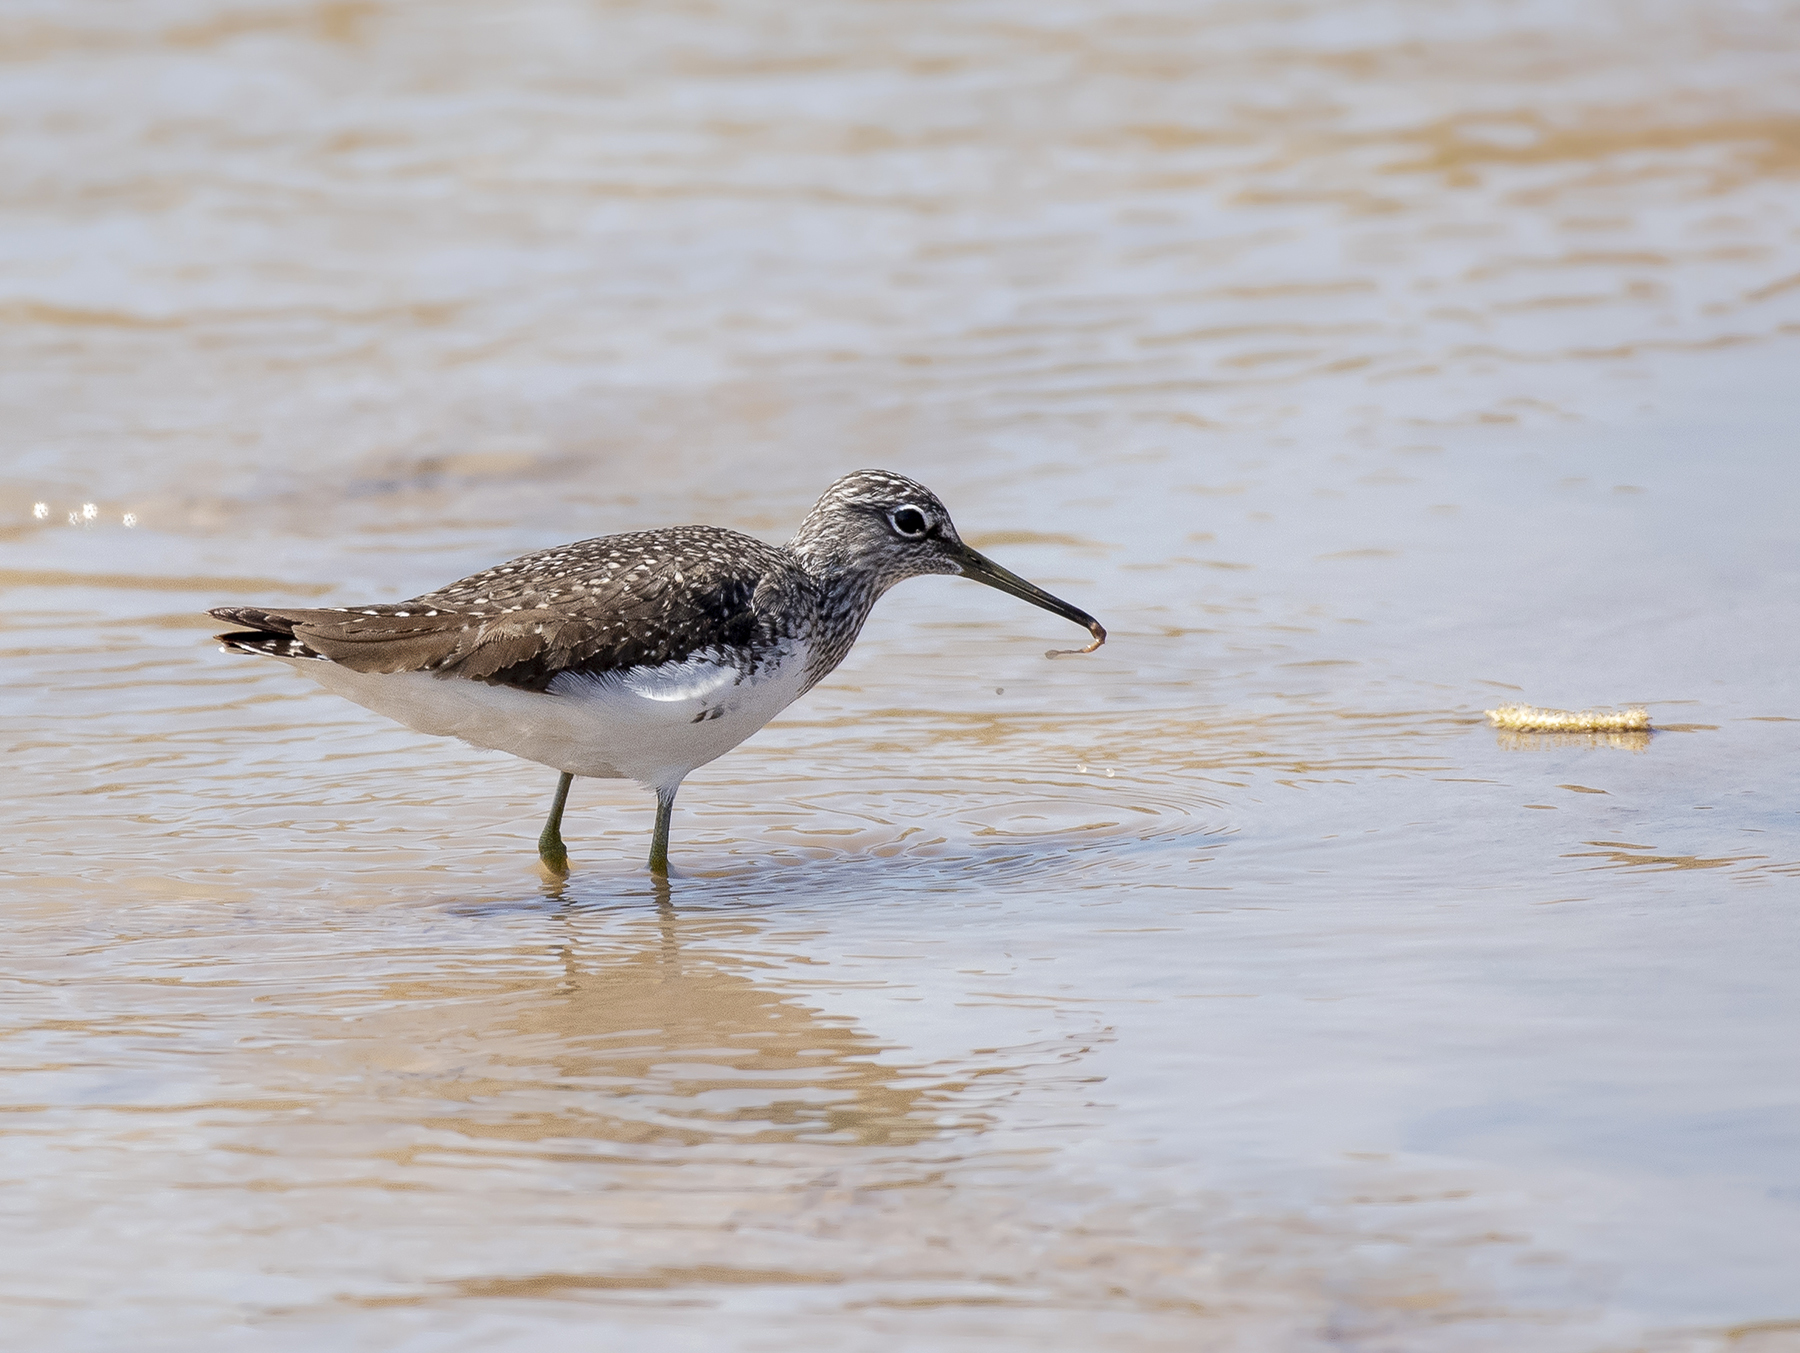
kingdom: Animalia
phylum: Chordata
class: Aves
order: Charadriiformes
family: Scolopacidae
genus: Tringa
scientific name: Tringa ochropus
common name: Green sandpiper
